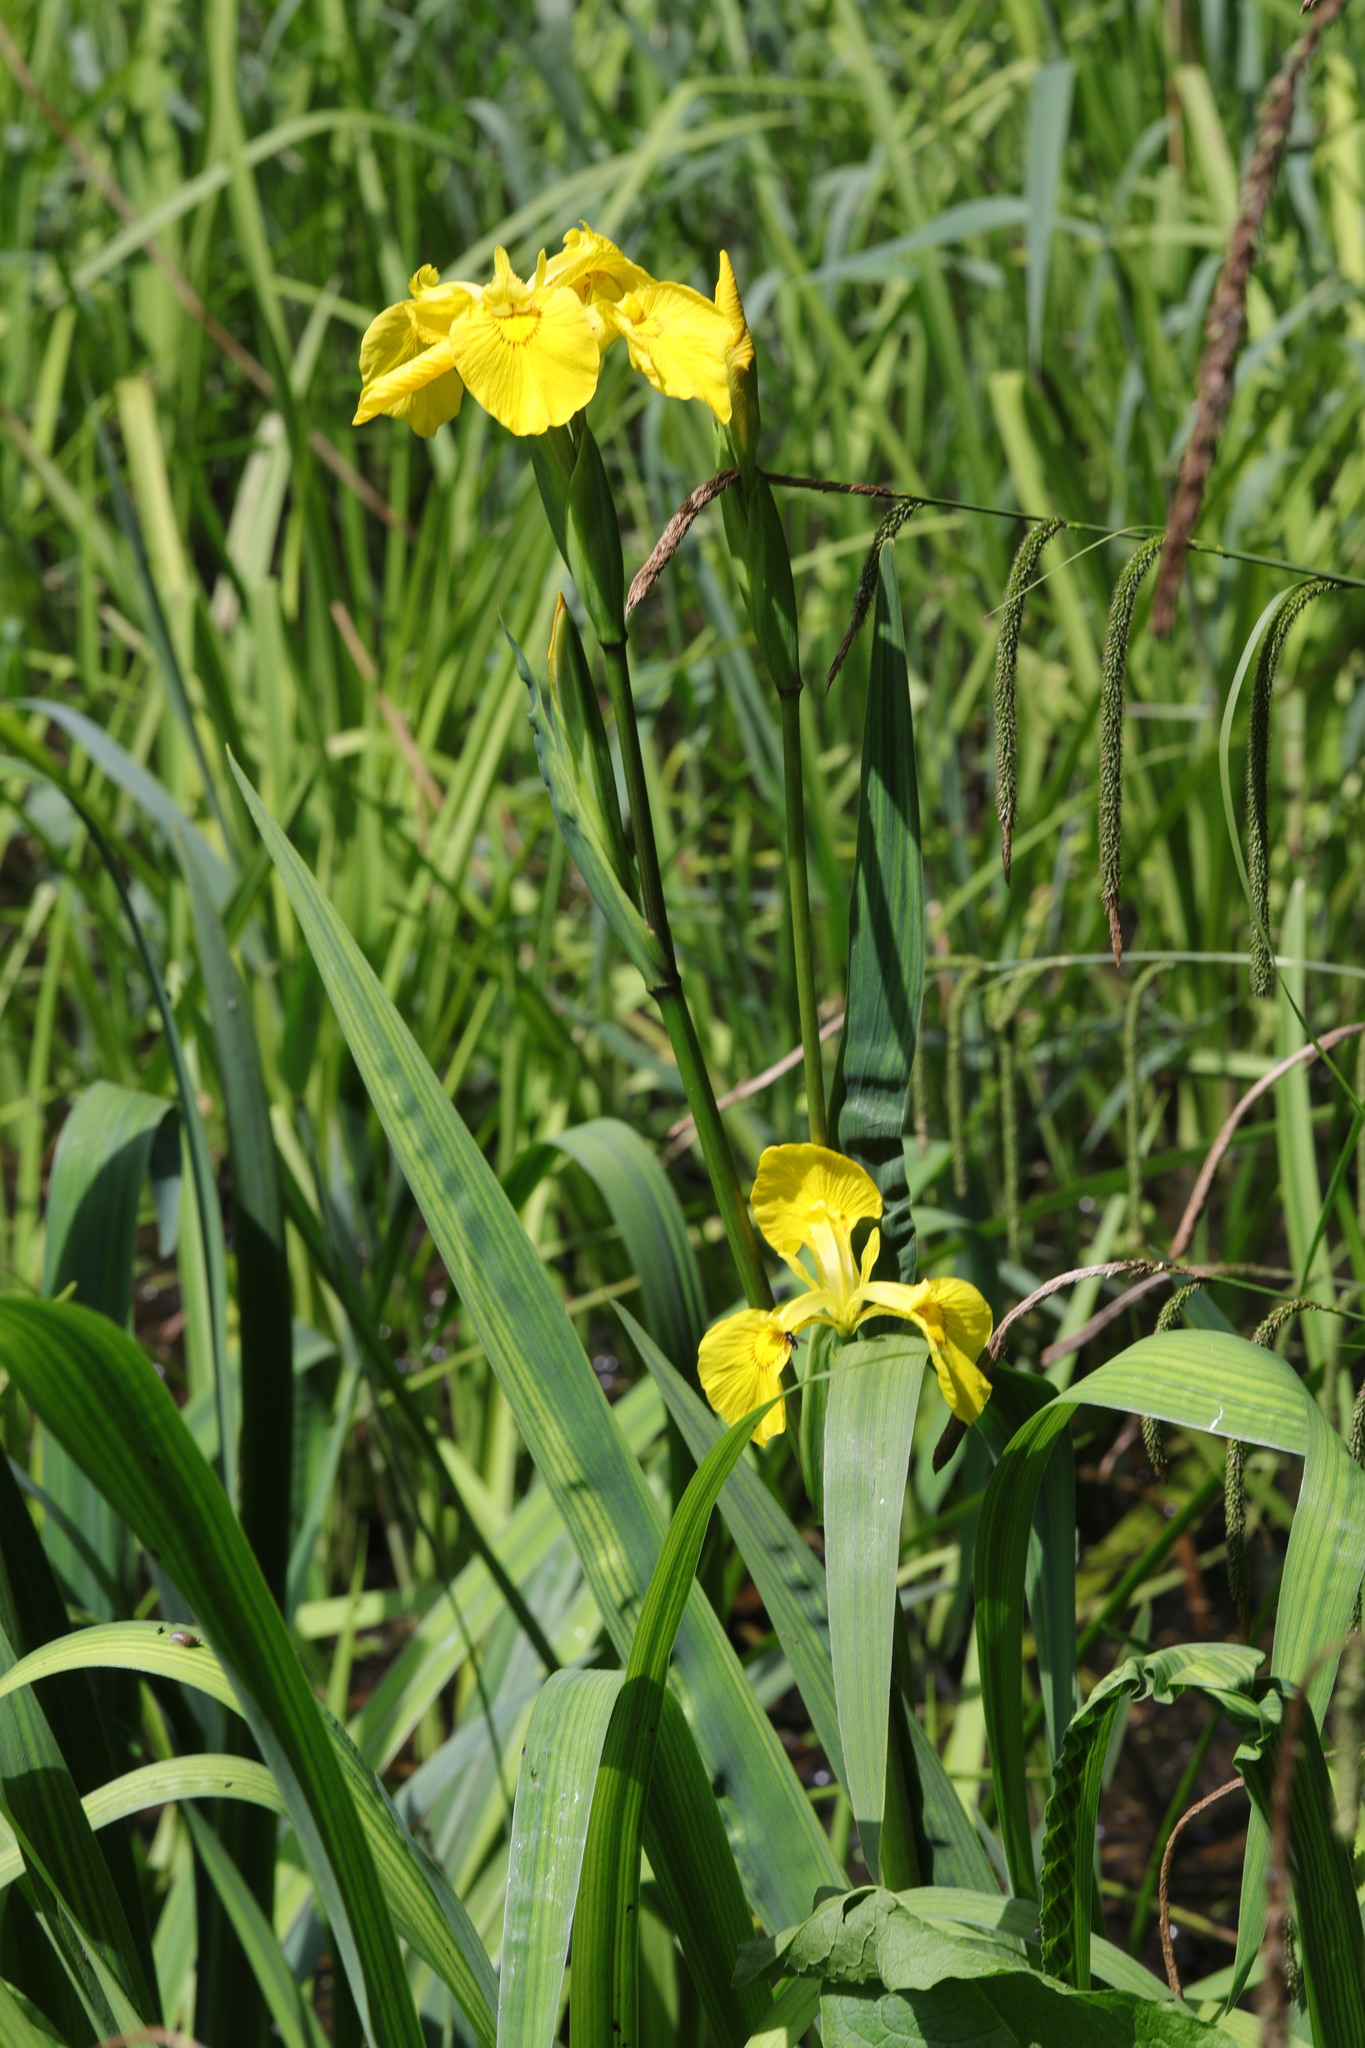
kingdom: Plantae
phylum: Tracheophyta
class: Liliopsida
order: Asparagales
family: Iridaceae
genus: Iris
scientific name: Iris pseudacorus
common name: Yellow flag
